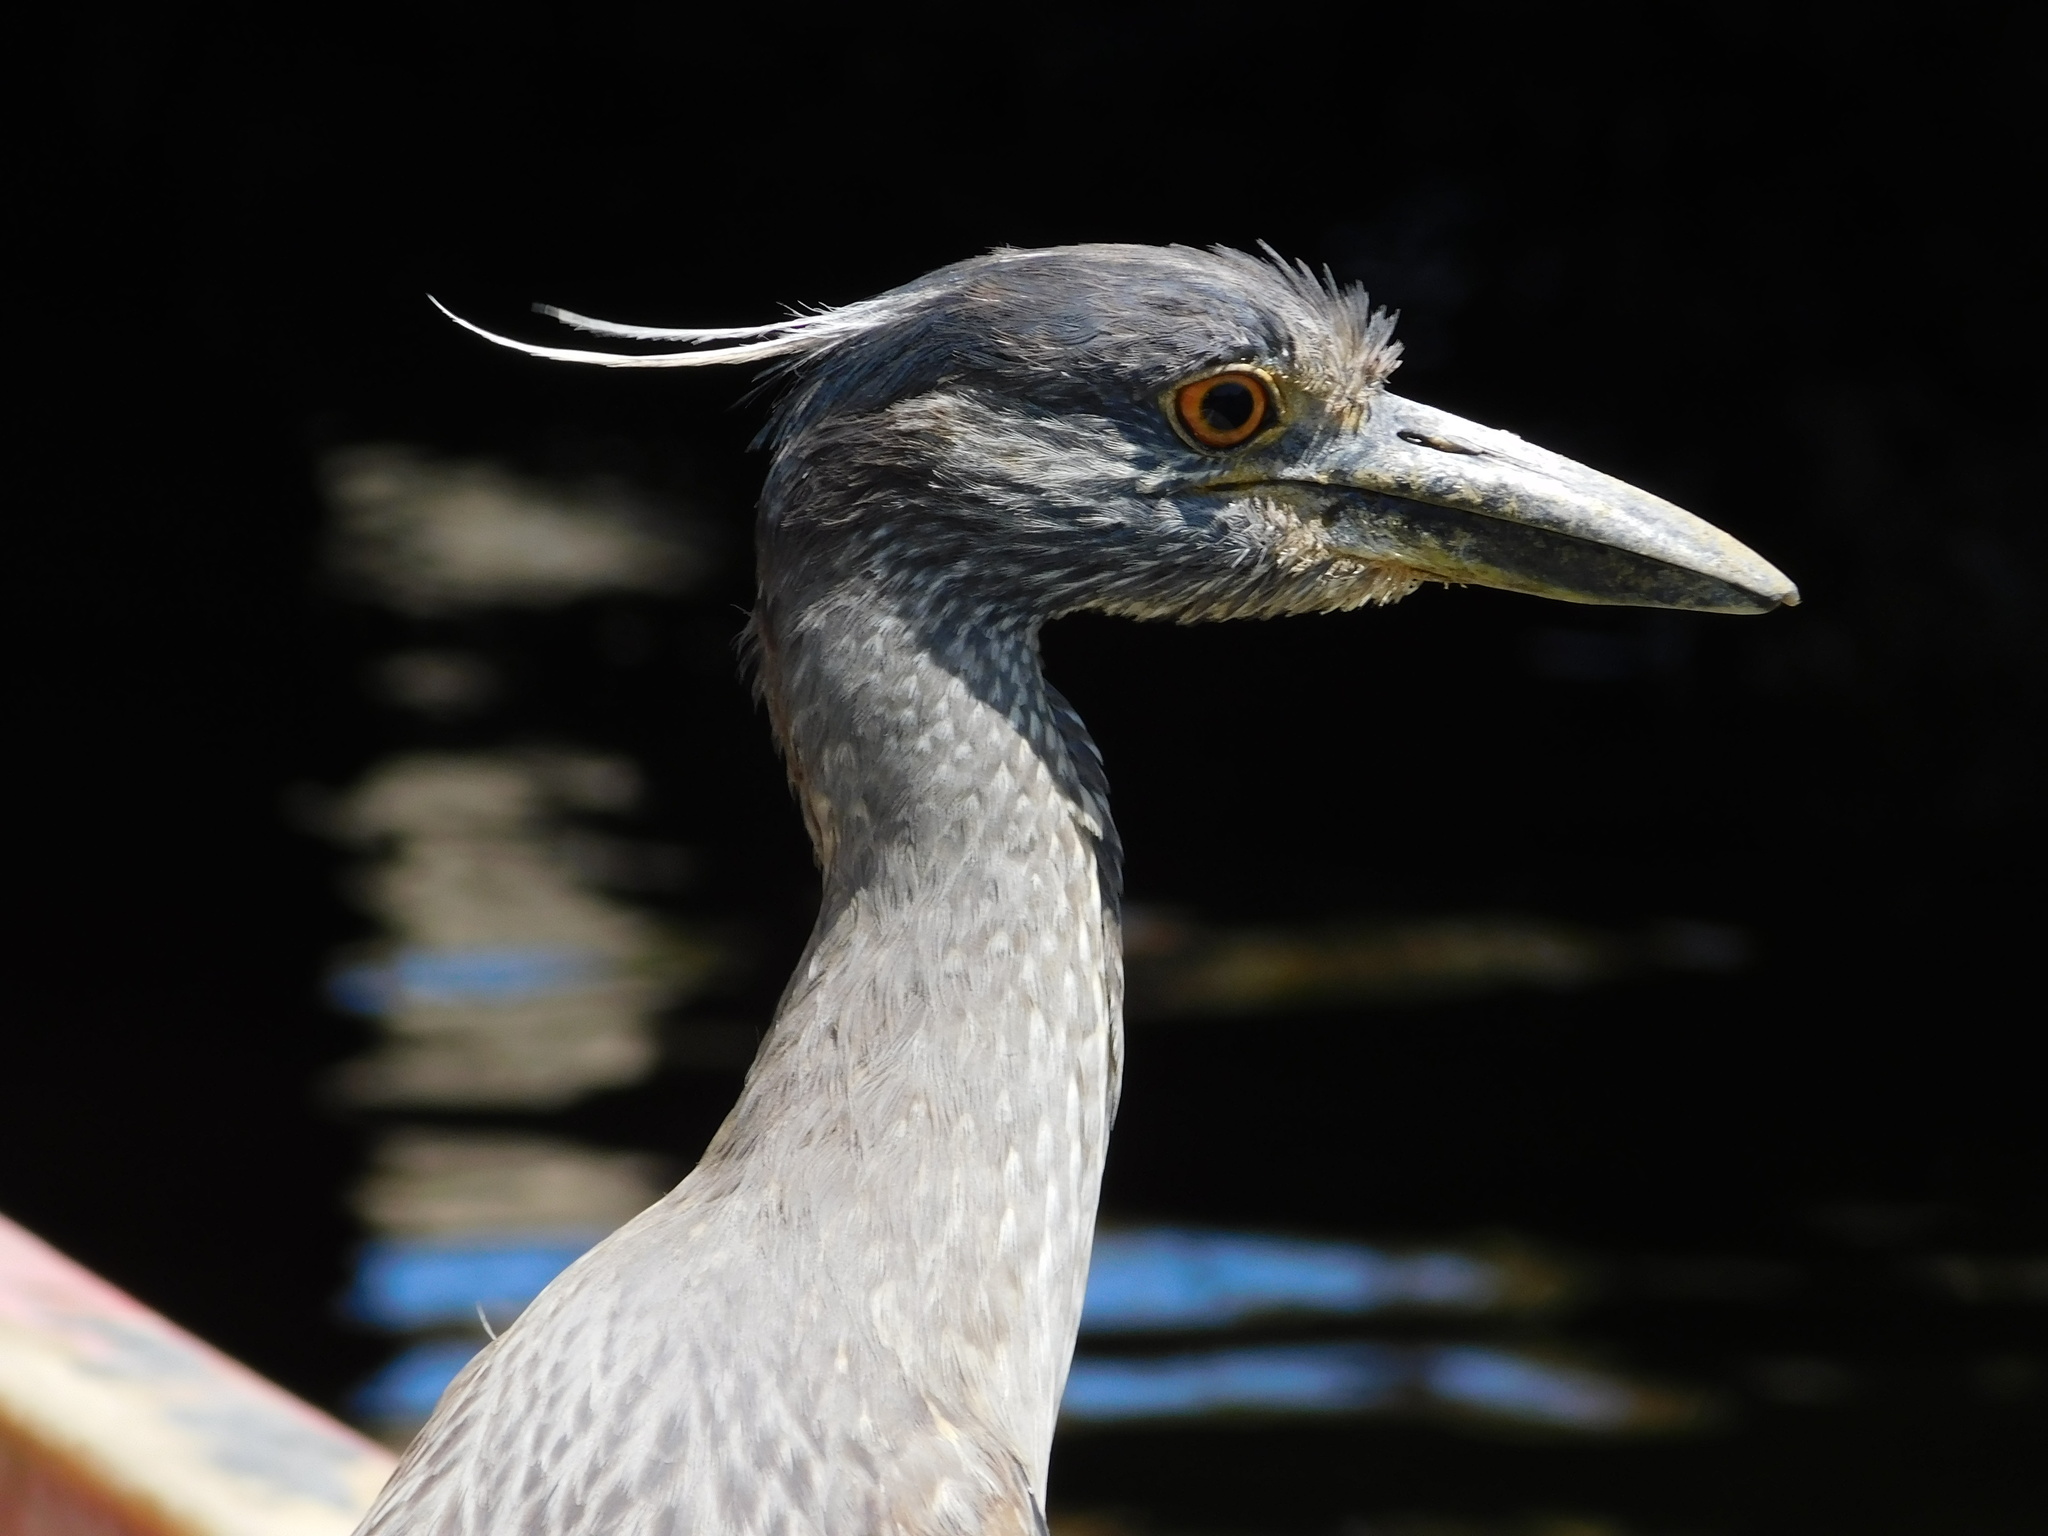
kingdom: Animalia
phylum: Chordata
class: Aves
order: Pelecaniformes
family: Ardeidae
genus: Nyctanassa
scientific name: Nyctanassa violacea
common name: Yellow-crowned night heron
